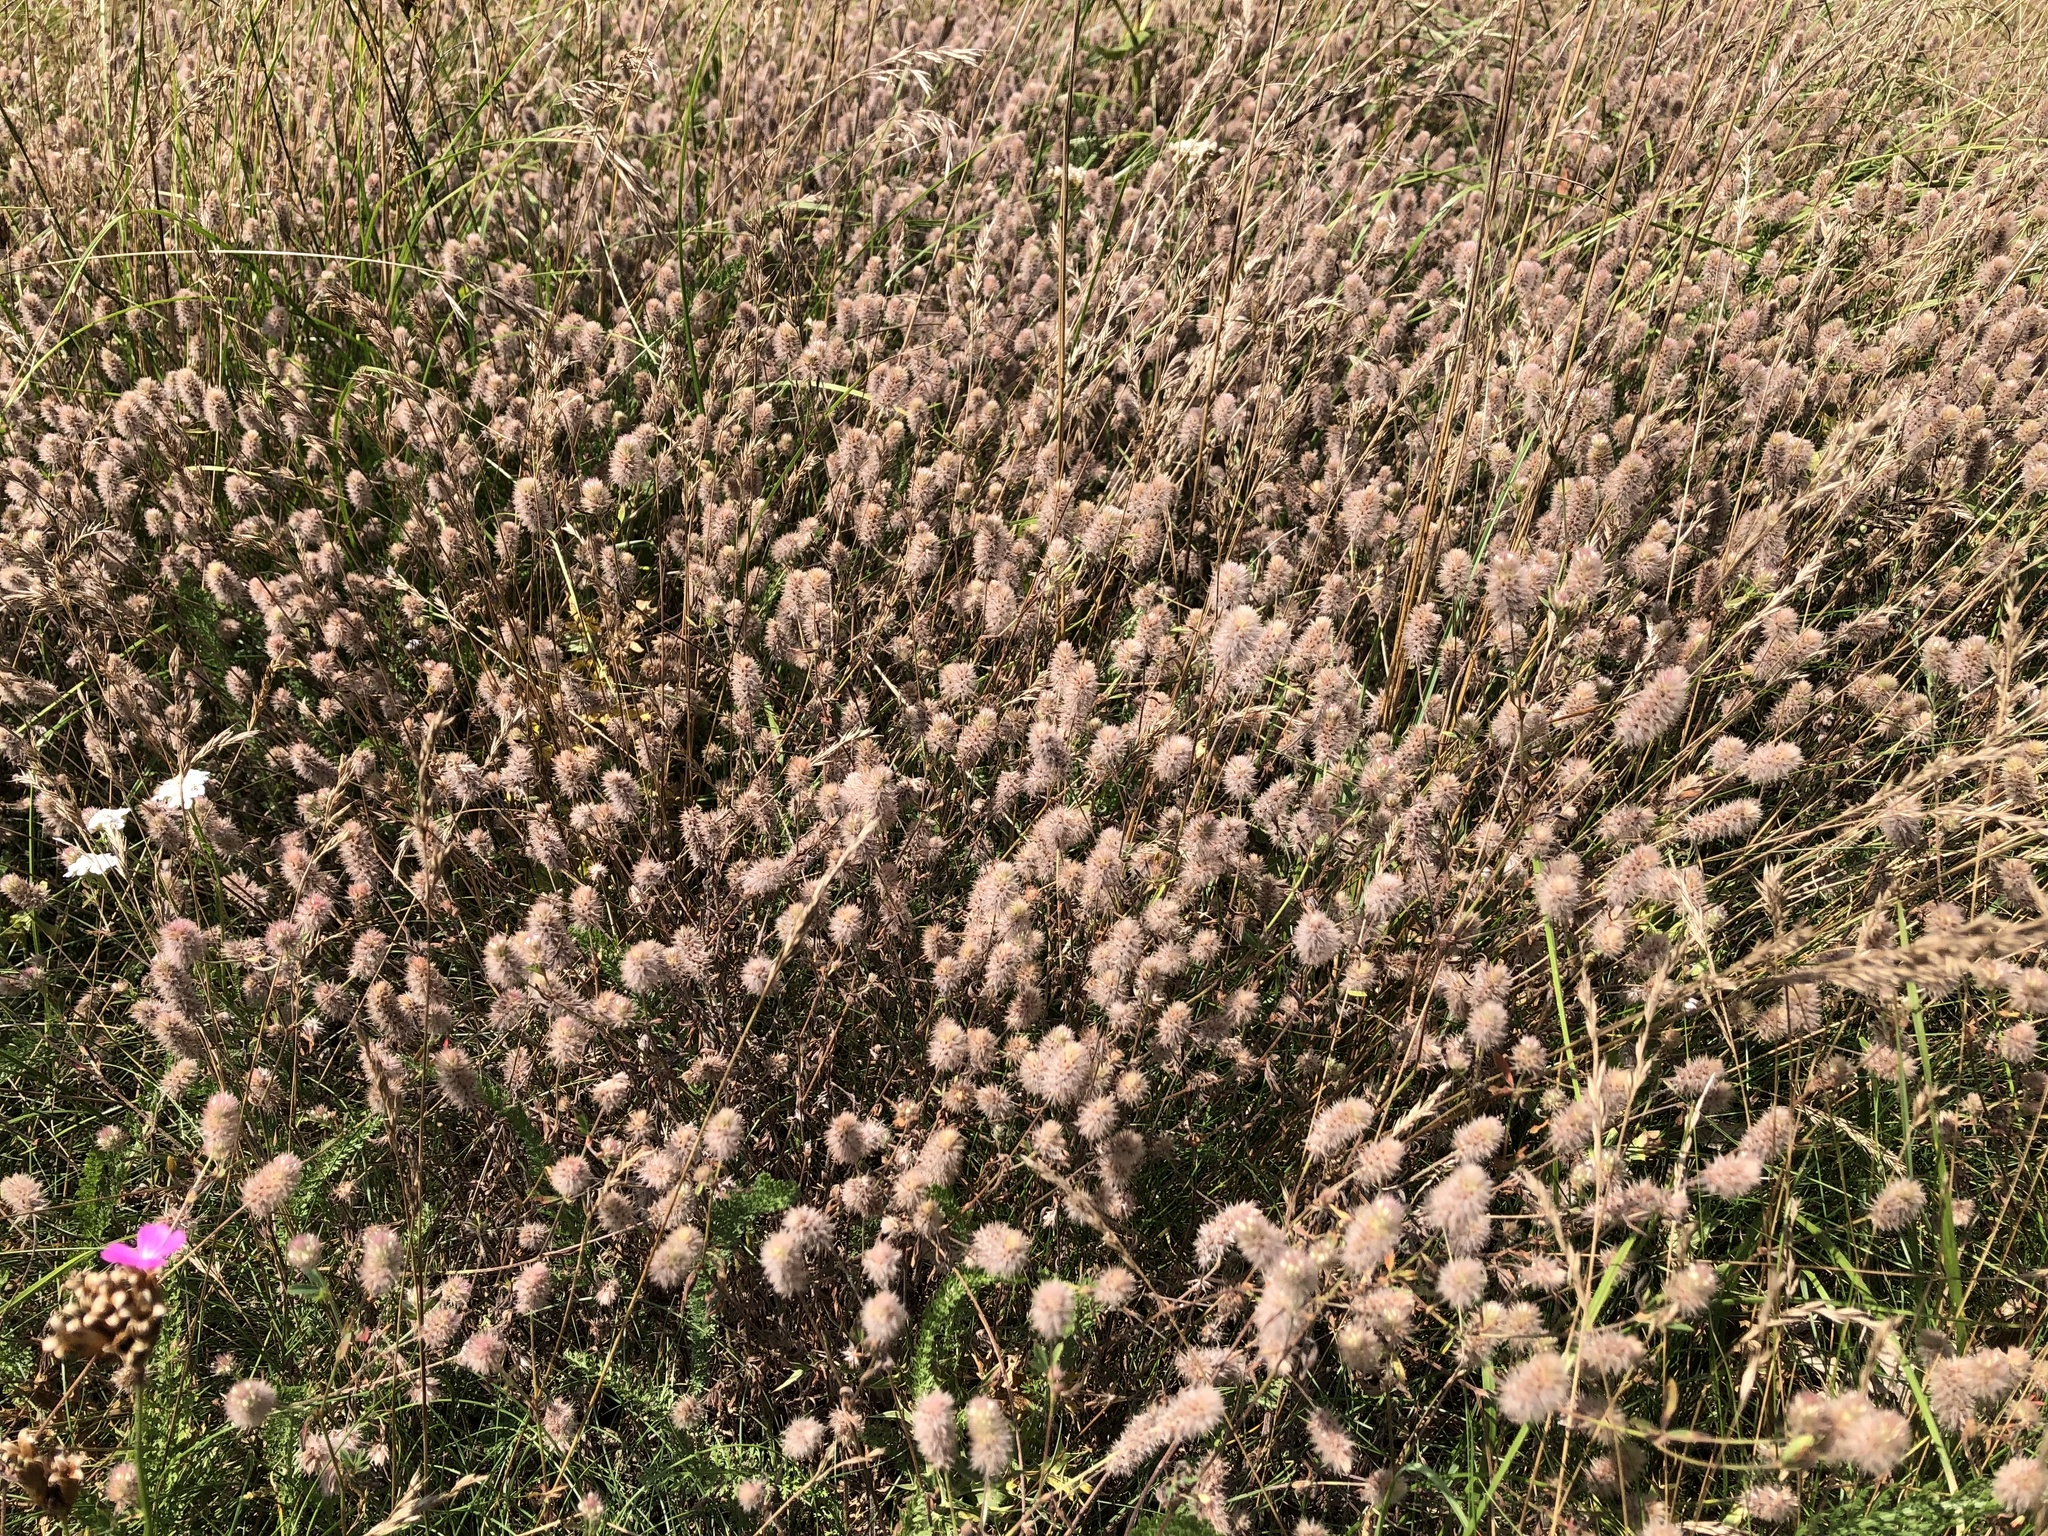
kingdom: Plantae
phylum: Tracheophyta
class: Magnoliopsida
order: Fabales
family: Fabaceae
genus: Trifolium
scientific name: Trifolium arvense
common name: Hare's-foot clover
